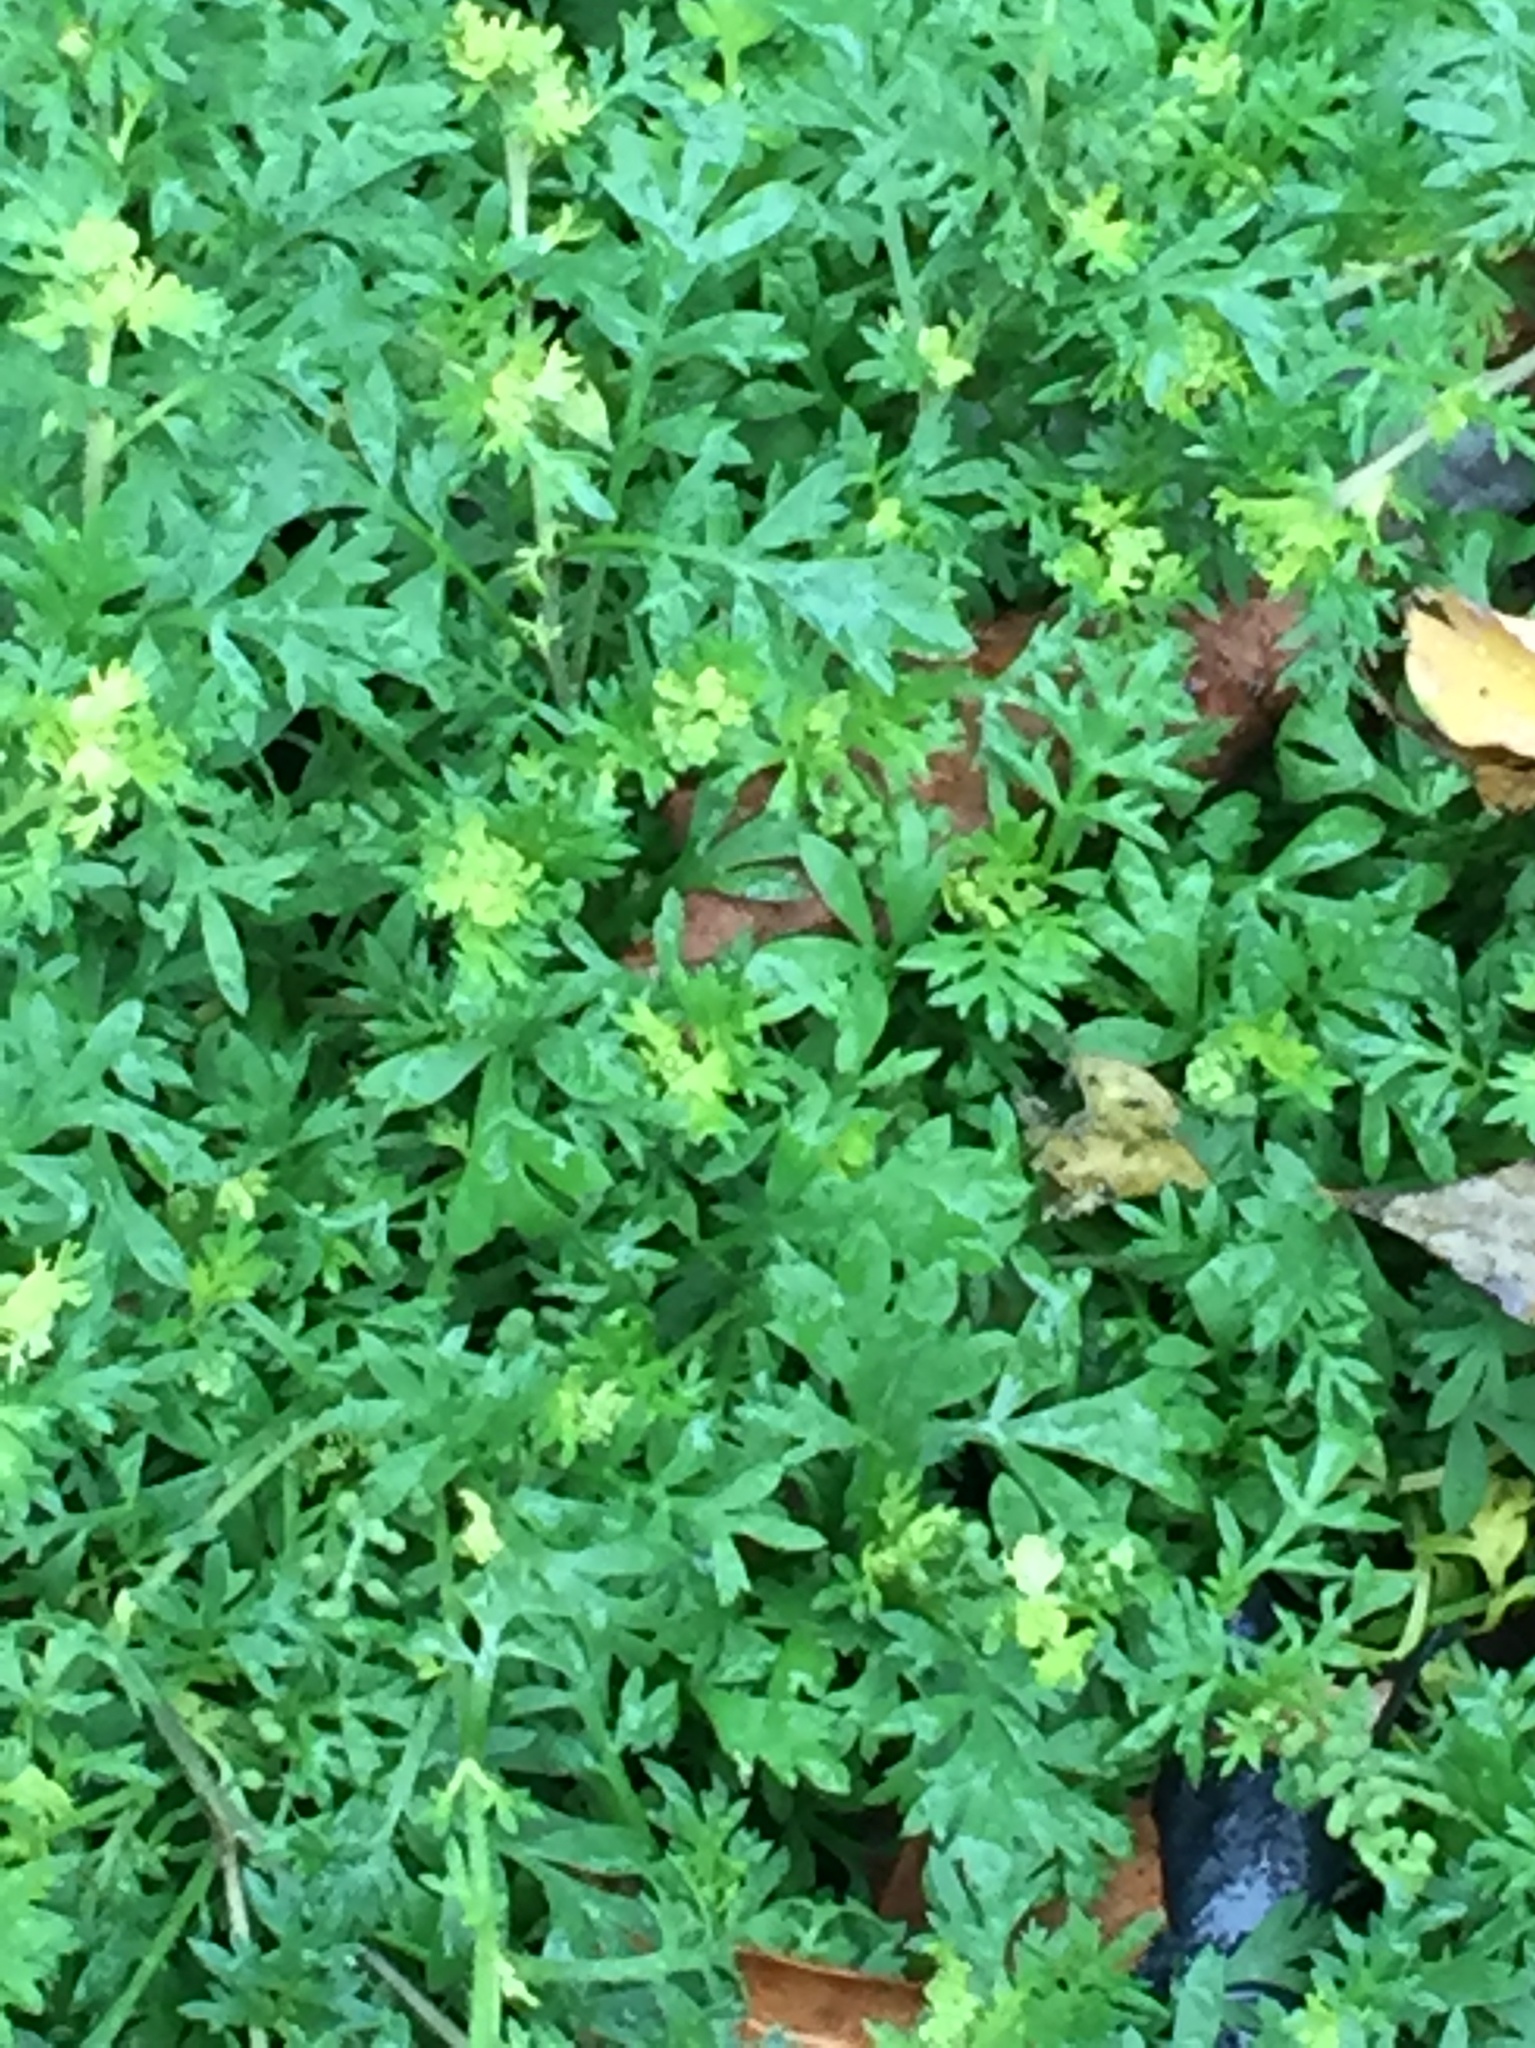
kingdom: Plantae
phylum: Tracheophyta
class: Magnoliopsida
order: Brassicales
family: Brassicaceae
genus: Lepidium
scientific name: Lepidium didymum
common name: Lesser swinecress
